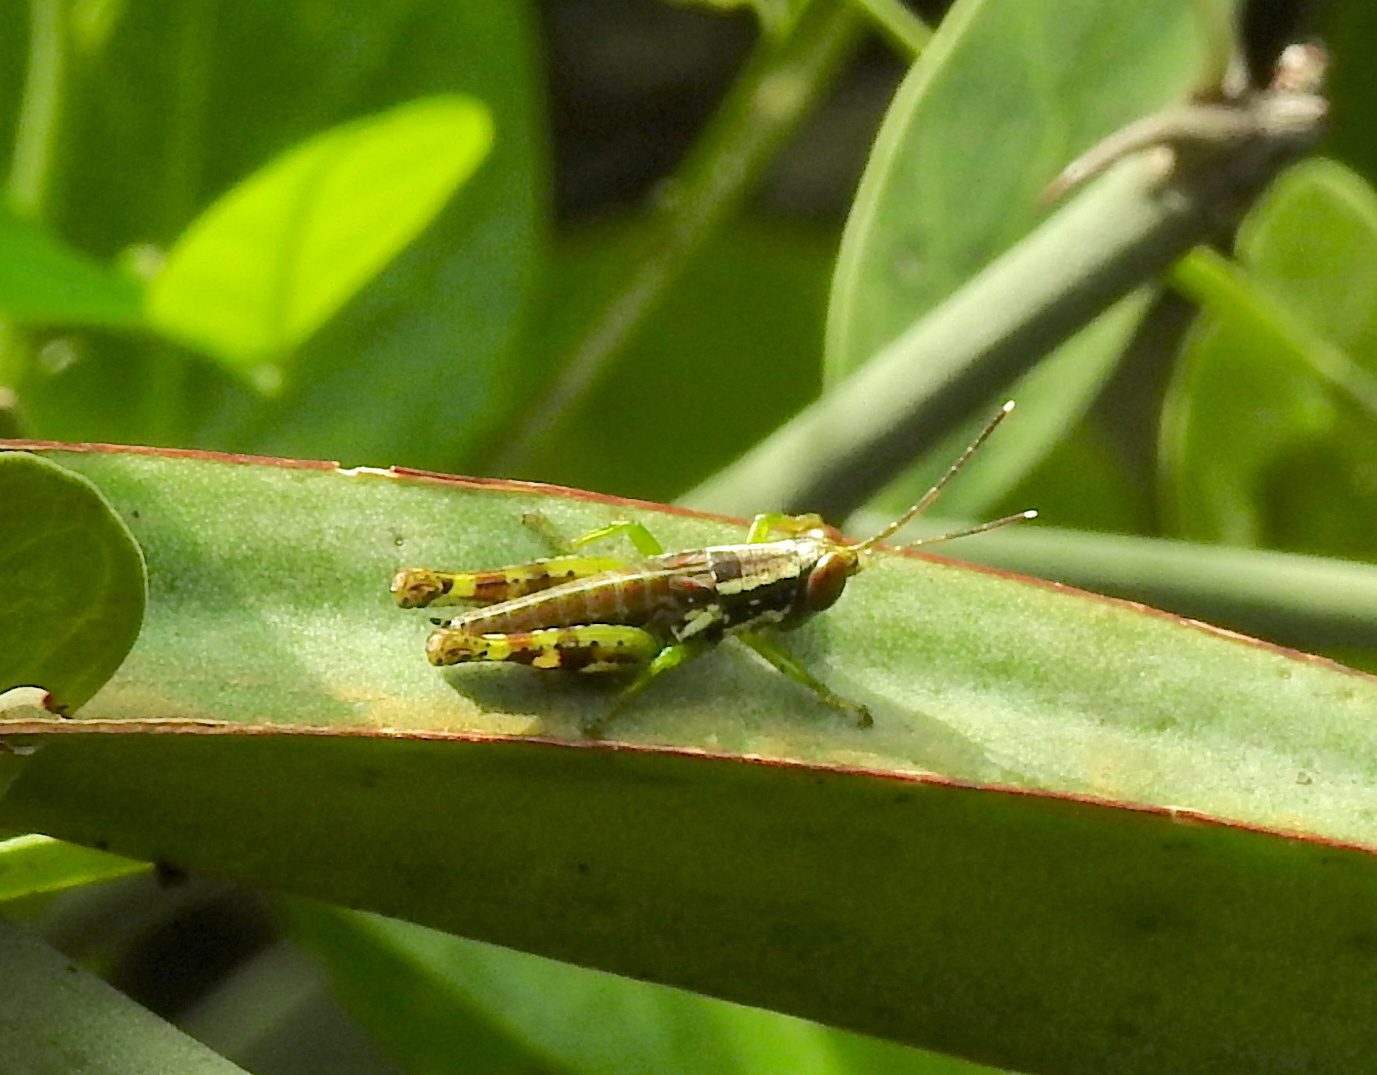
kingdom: Animalia
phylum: Arthropoda
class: Insecta
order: Orthoptera
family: Acrididae
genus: Pirithoicus
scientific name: Pirithoicus ophthalmicus
